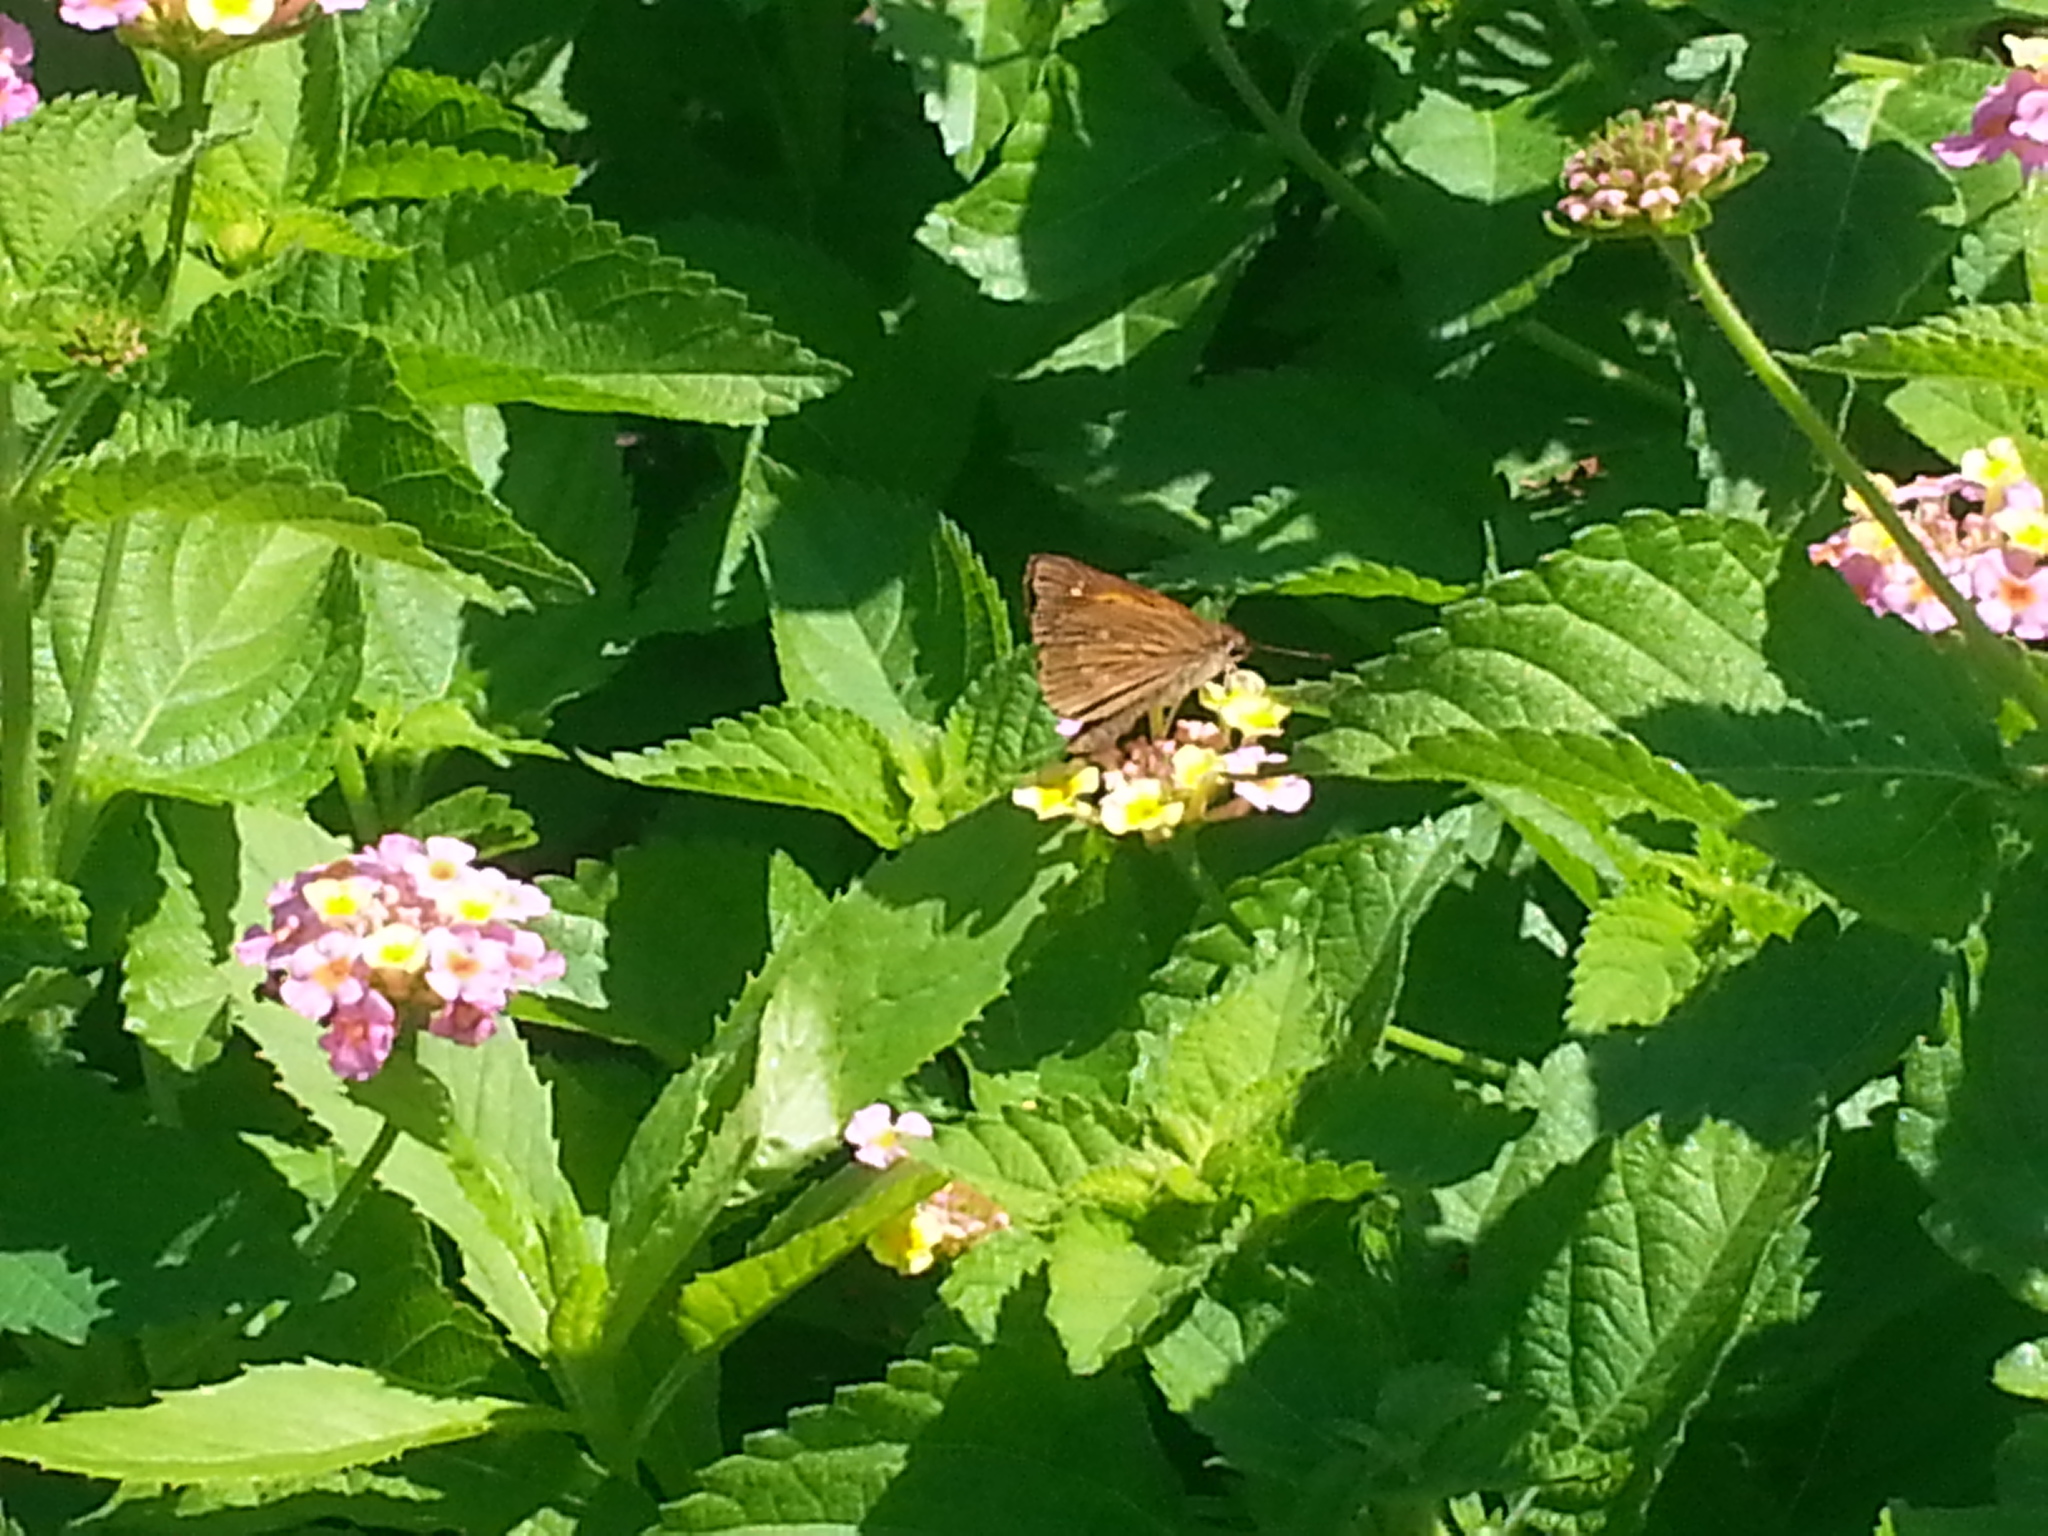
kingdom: Animalia
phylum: Arthropoda
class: Insecta
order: Lepidoptera
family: Hesperiidae
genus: Poanes
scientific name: Poanes viator
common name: Broad-winged skipper
